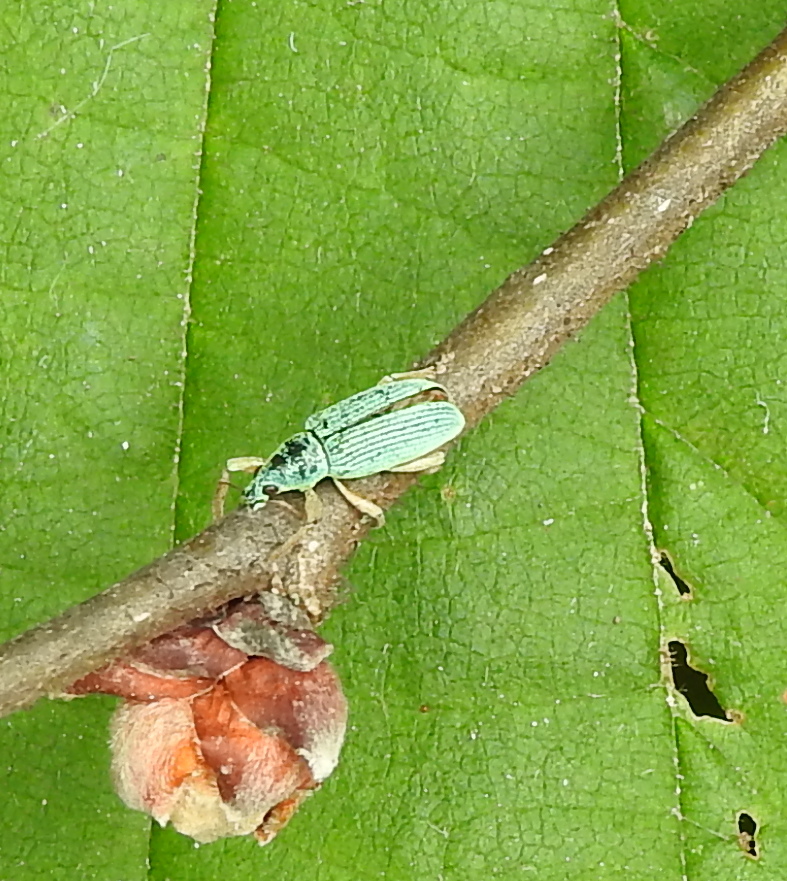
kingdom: Animalia
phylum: Arthropoda
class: Insecta
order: Coleoptera
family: Curculionidae
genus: Polydrusus
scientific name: Polydrusus formosus
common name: Weevil
